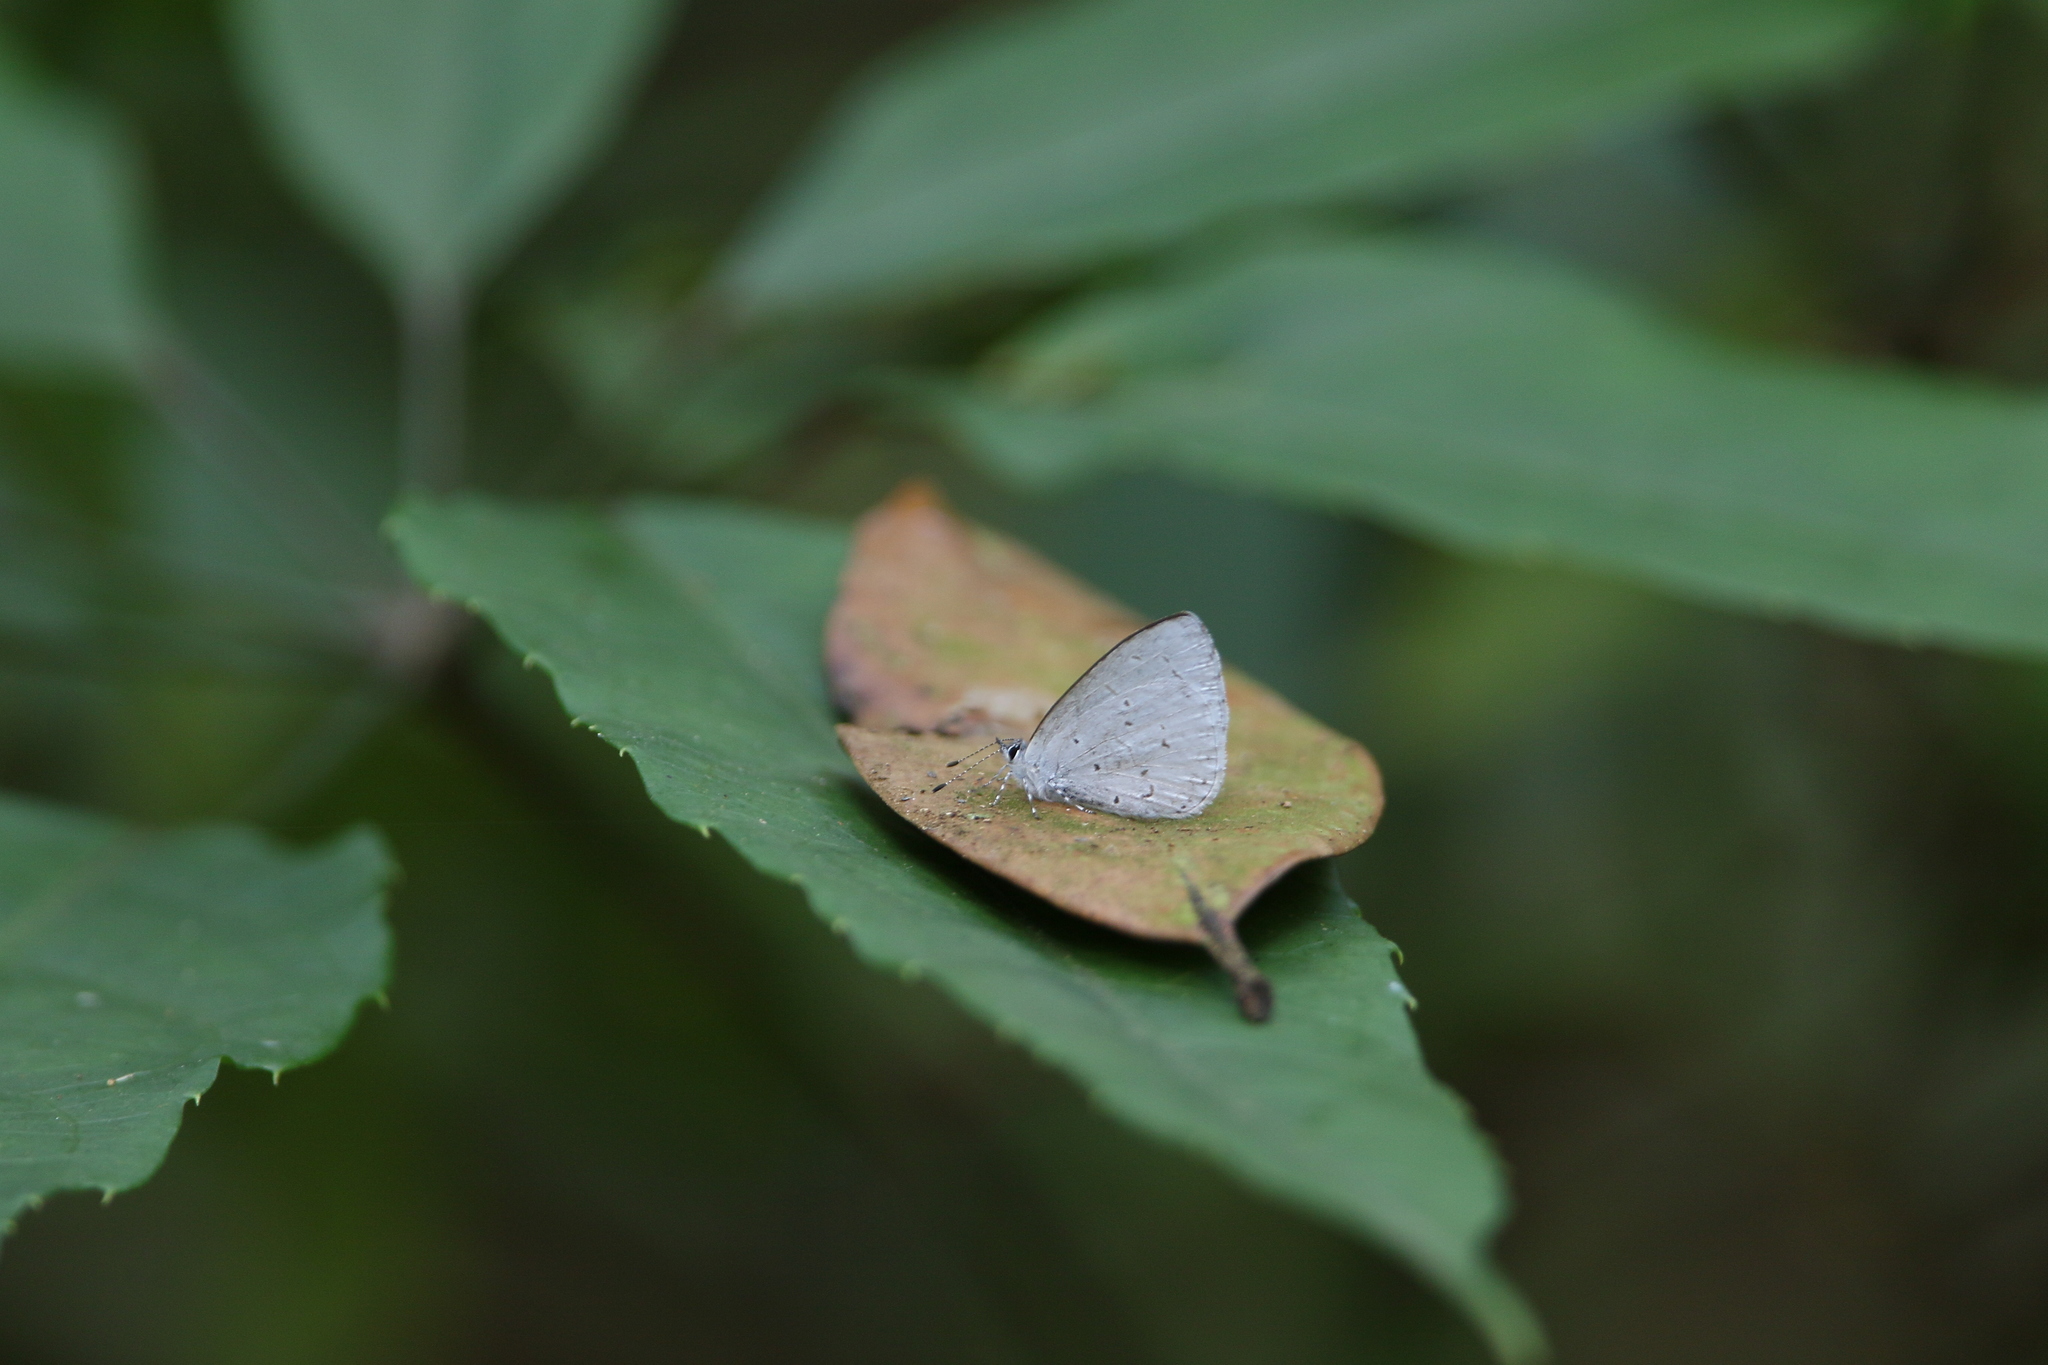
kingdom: Animalia
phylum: Arthropoda
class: Insecta
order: Lepidoptera
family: Lycaenidae
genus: Udara
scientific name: Udara dilectus
